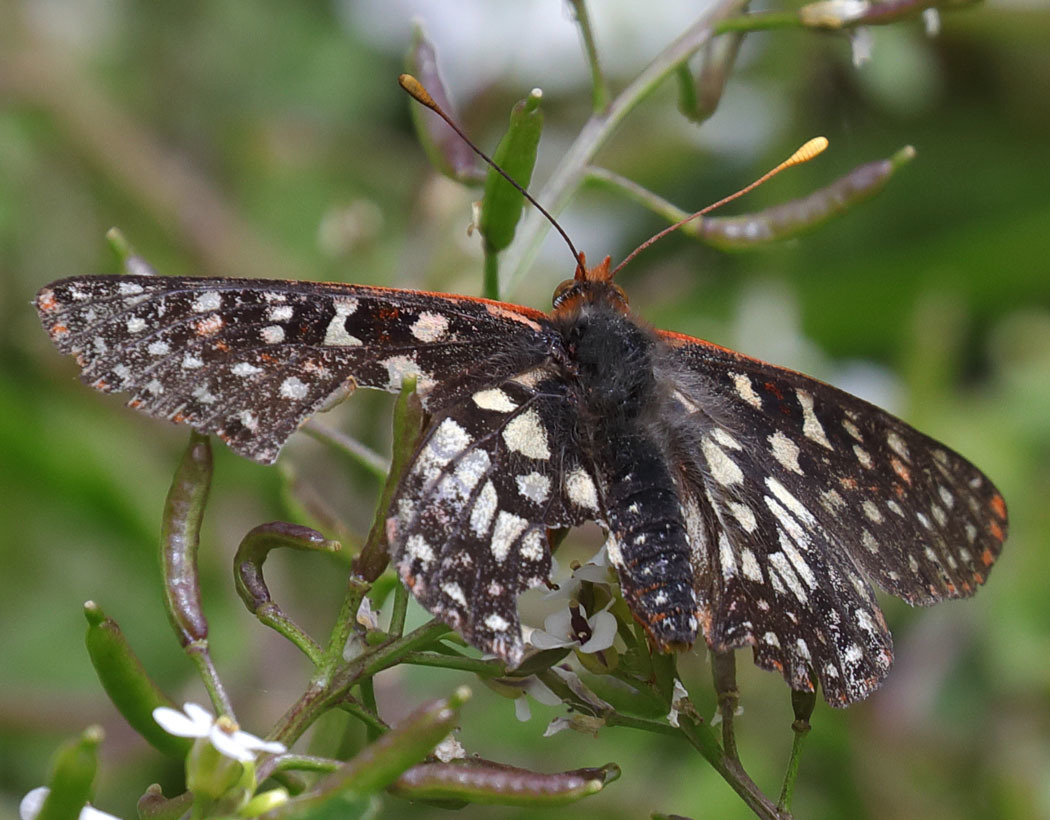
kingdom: Animalia
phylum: Arthropoda
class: Insecta
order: Lepidoptera
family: Nymphalidae
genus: Occidryas
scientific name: Occidryas chalcedona
